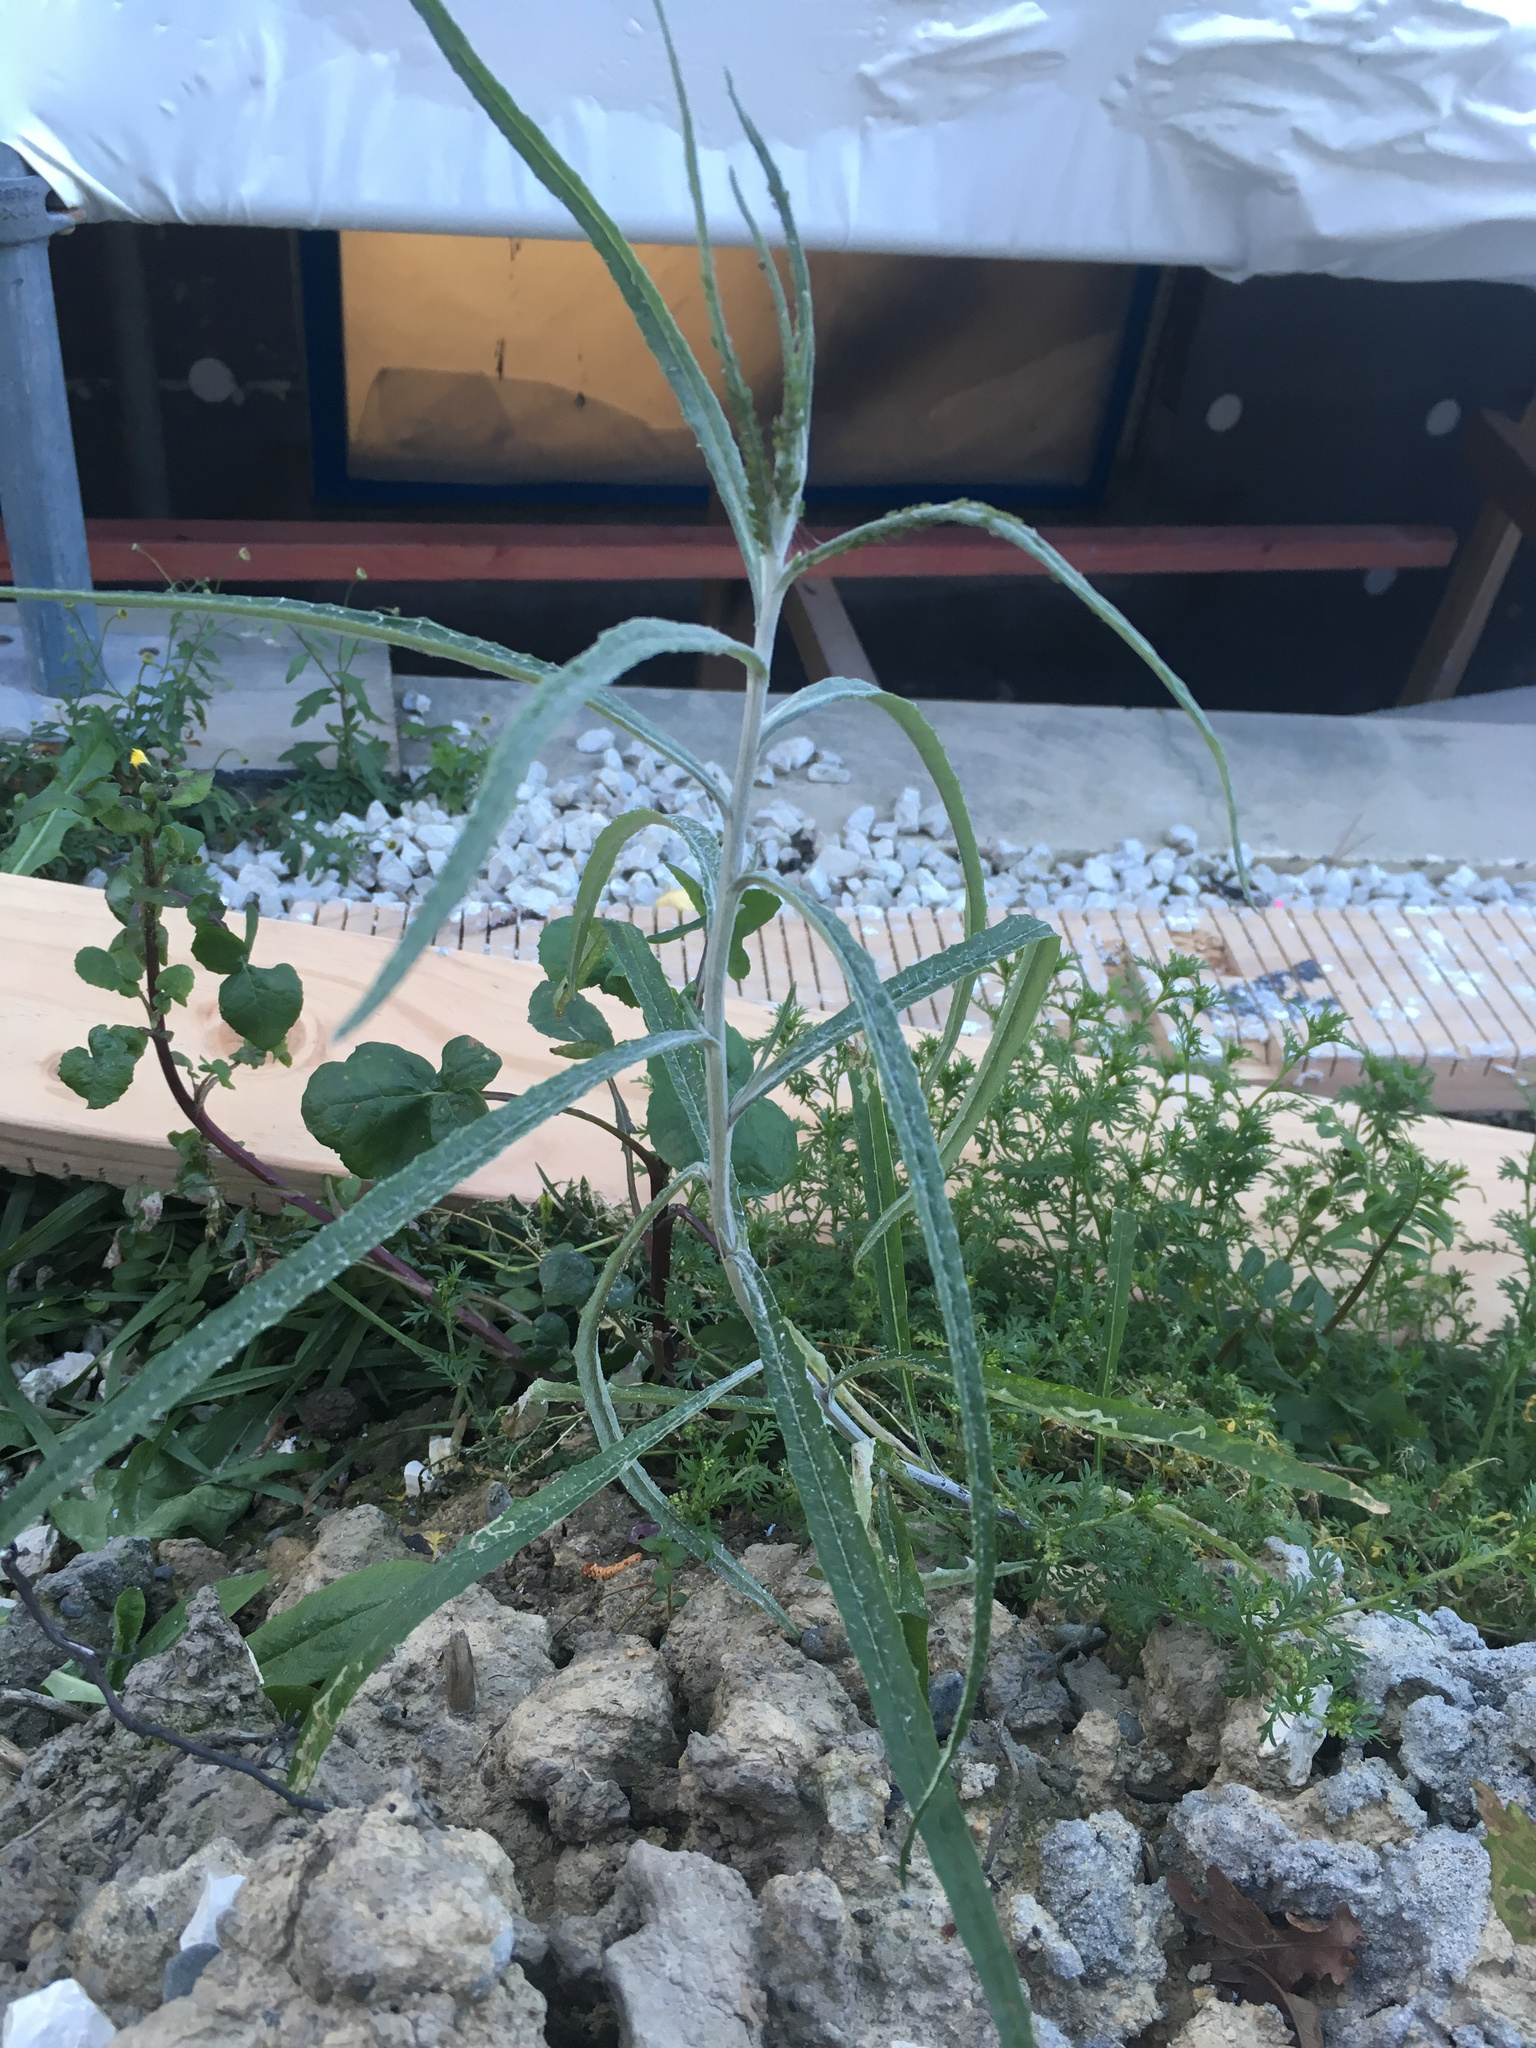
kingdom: Plantae
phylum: Tracheophyta
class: Magnoliopsida
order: Asterales
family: Asteraceae
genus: Senecio
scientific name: Senecio quadridentatus
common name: Cotton fireweed
